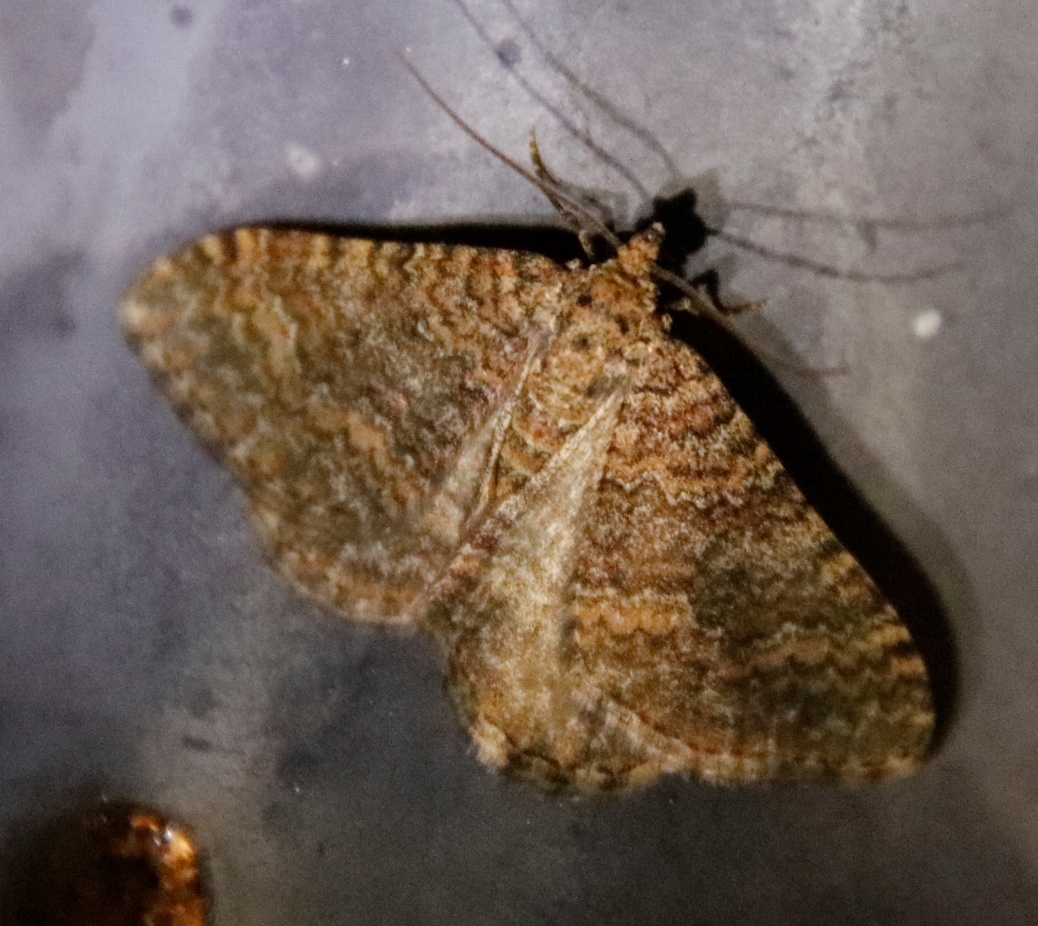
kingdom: Animalia
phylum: Arthropoda
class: Insecta
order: Lepidoptera
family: Geometridae
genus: Mimoclystia
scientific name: Mimoclystia pudicata
